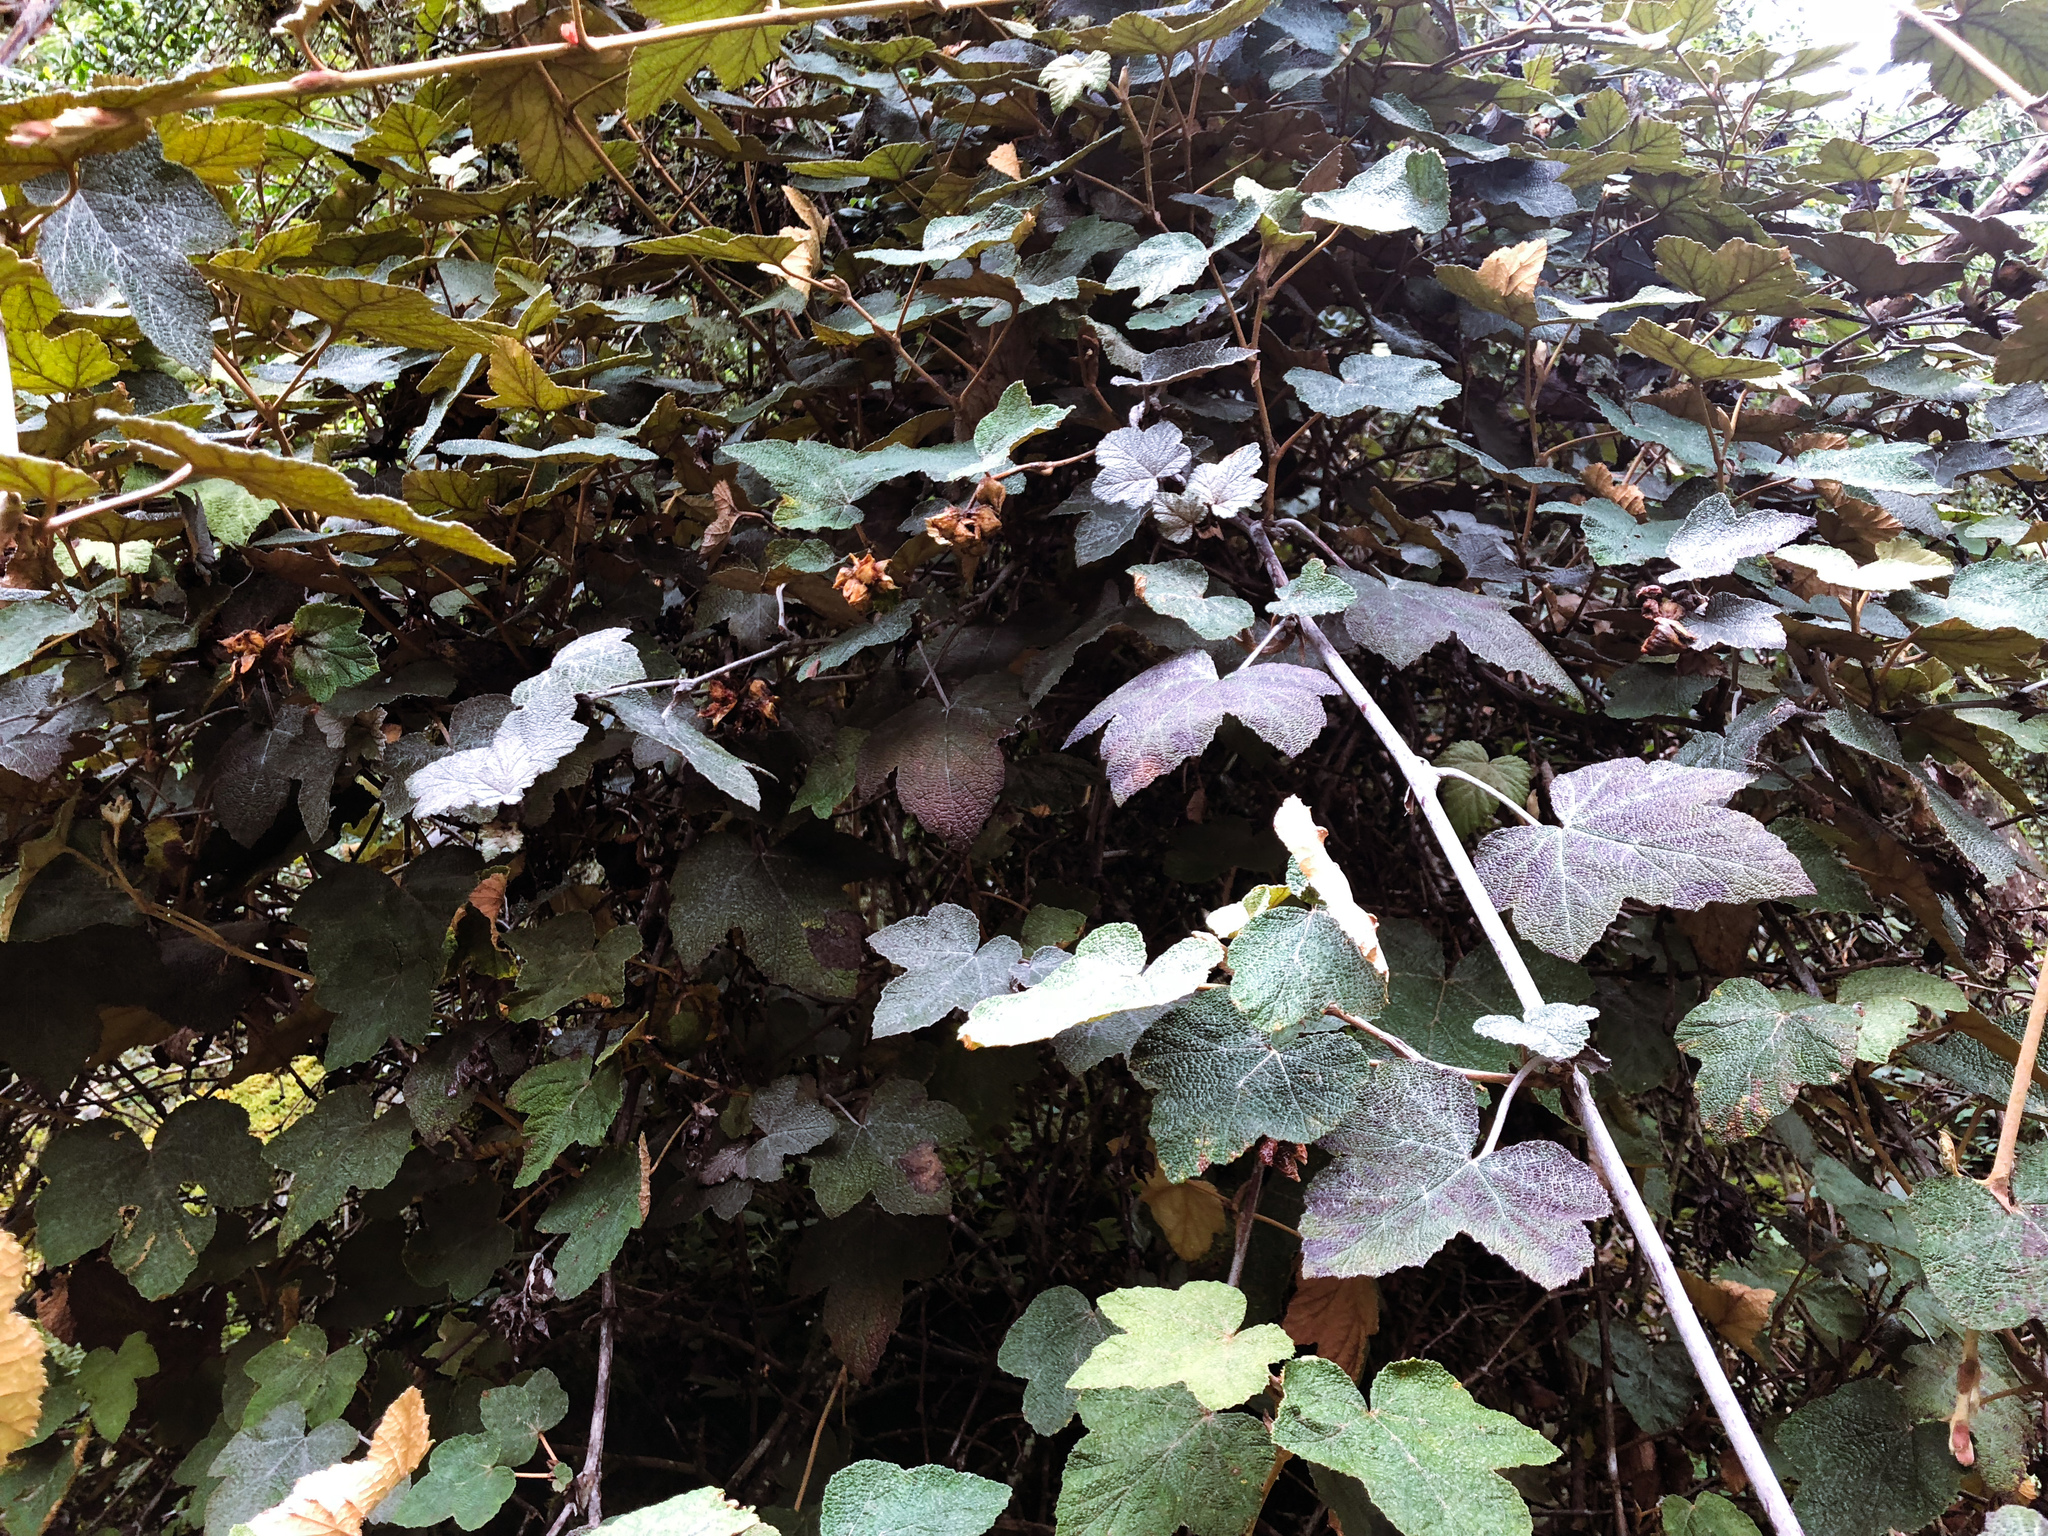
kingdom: Plantae
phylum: Tracheophyta
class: Magnoliopsida
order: Rosales
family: Rosaceae
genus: Rubus
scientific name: Rubus formosensis
